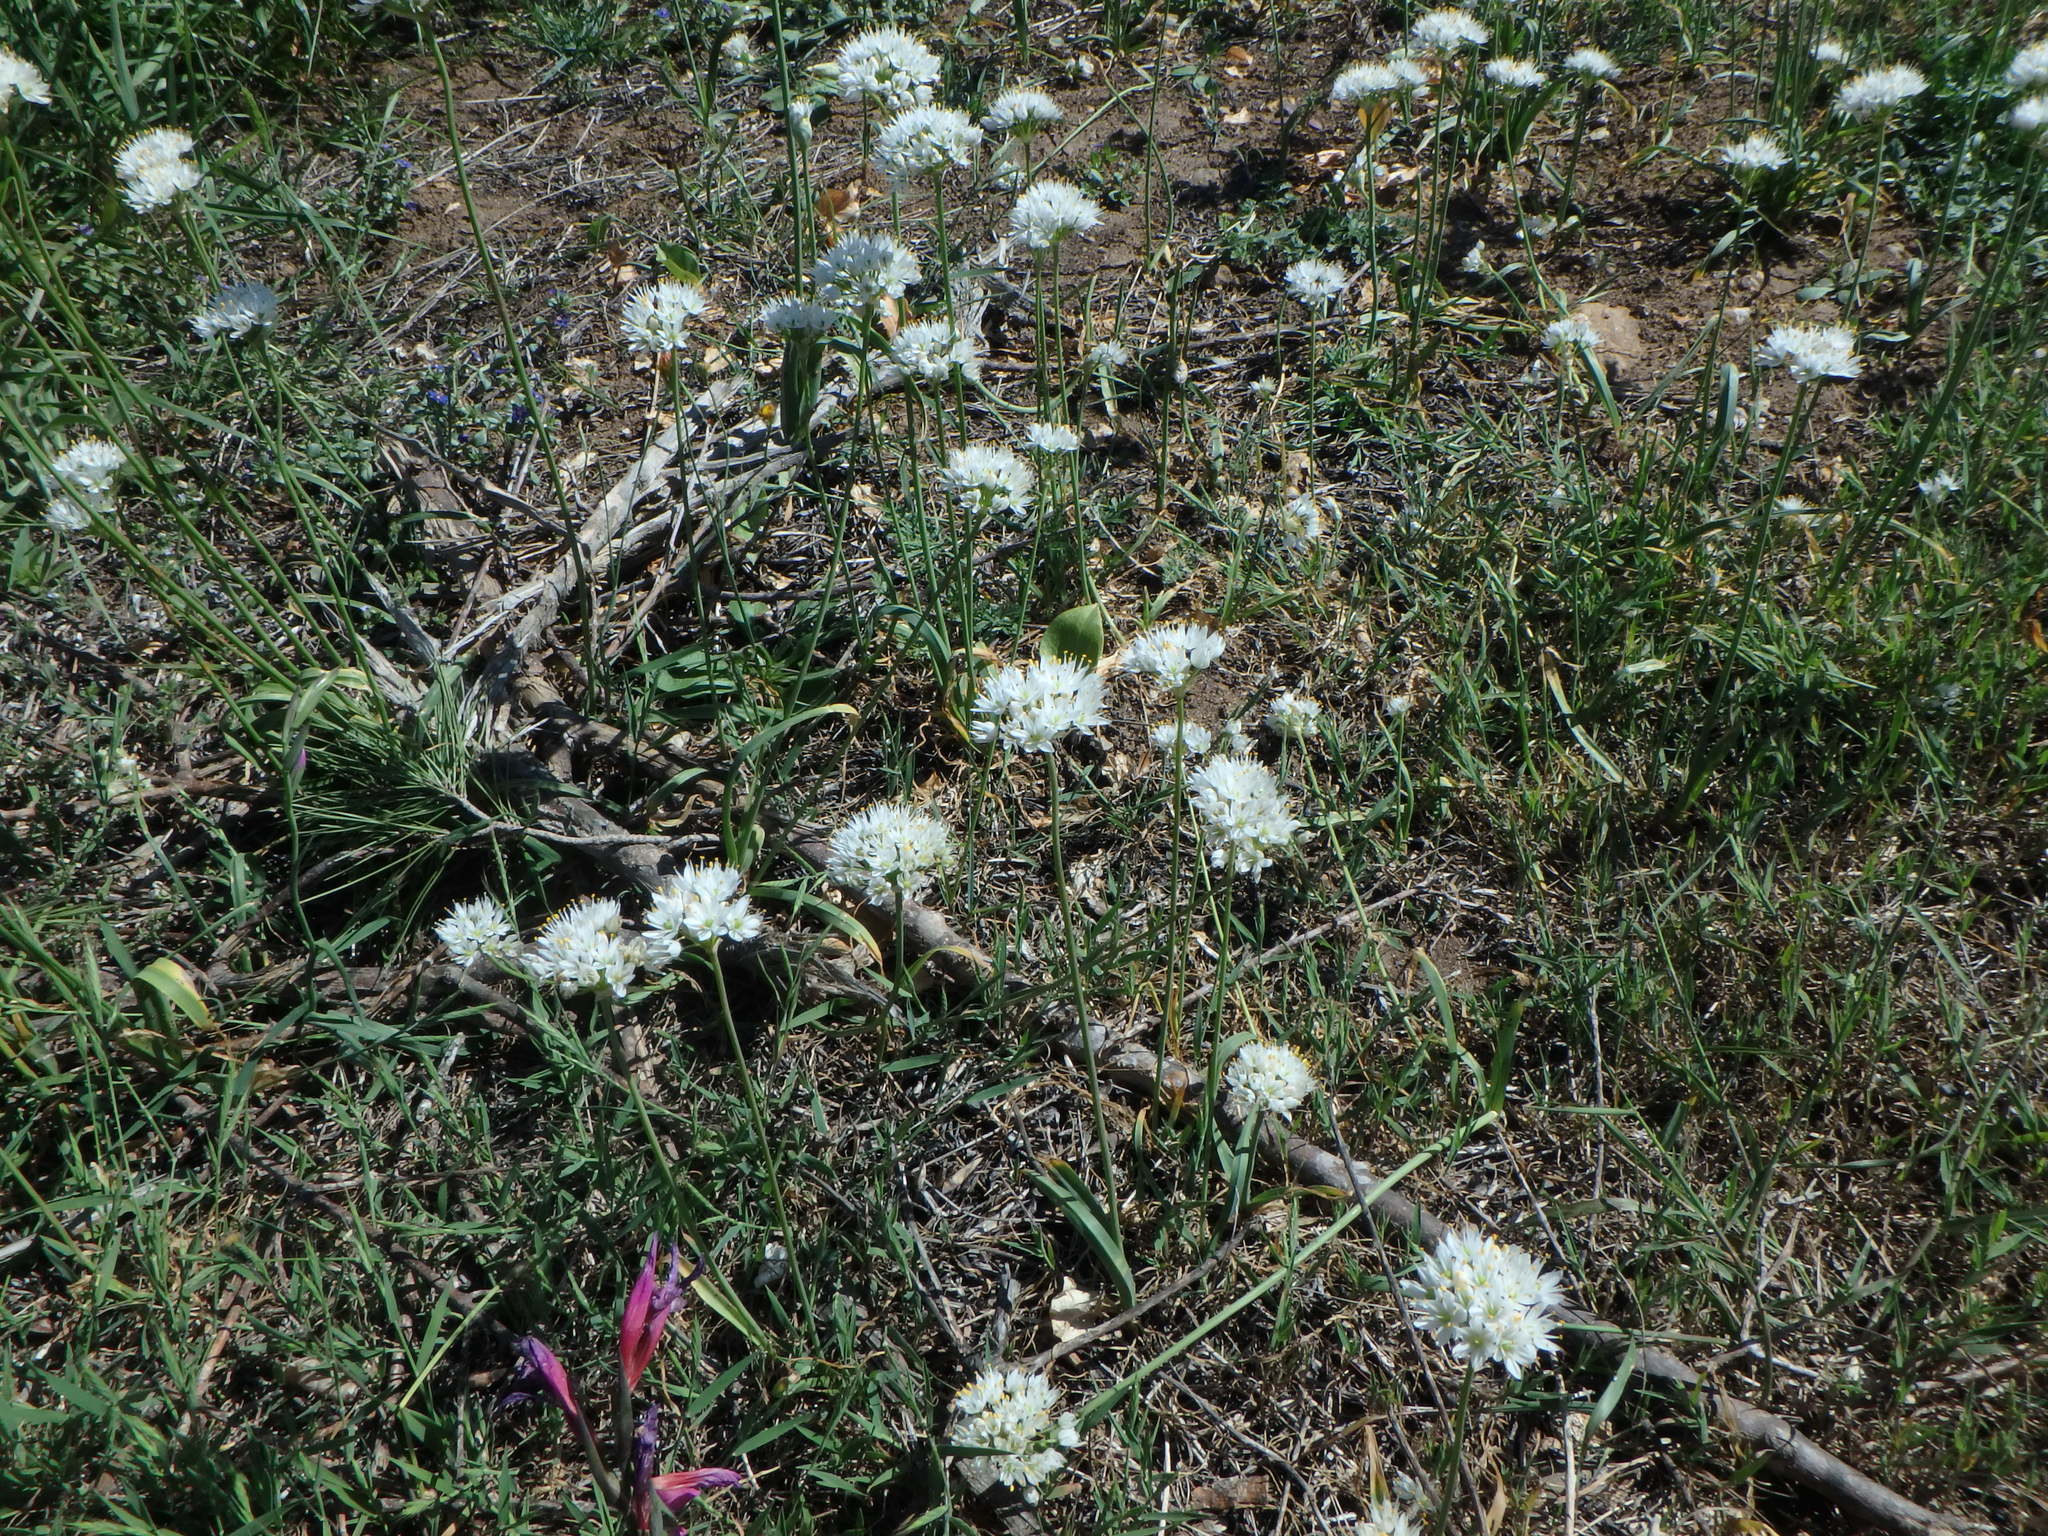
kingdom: Plantae
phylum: Tracheophyta
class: Liliopsida
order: Asparagales
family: Amaryllidaceae
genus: Allium
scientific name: Allium subvillosum
